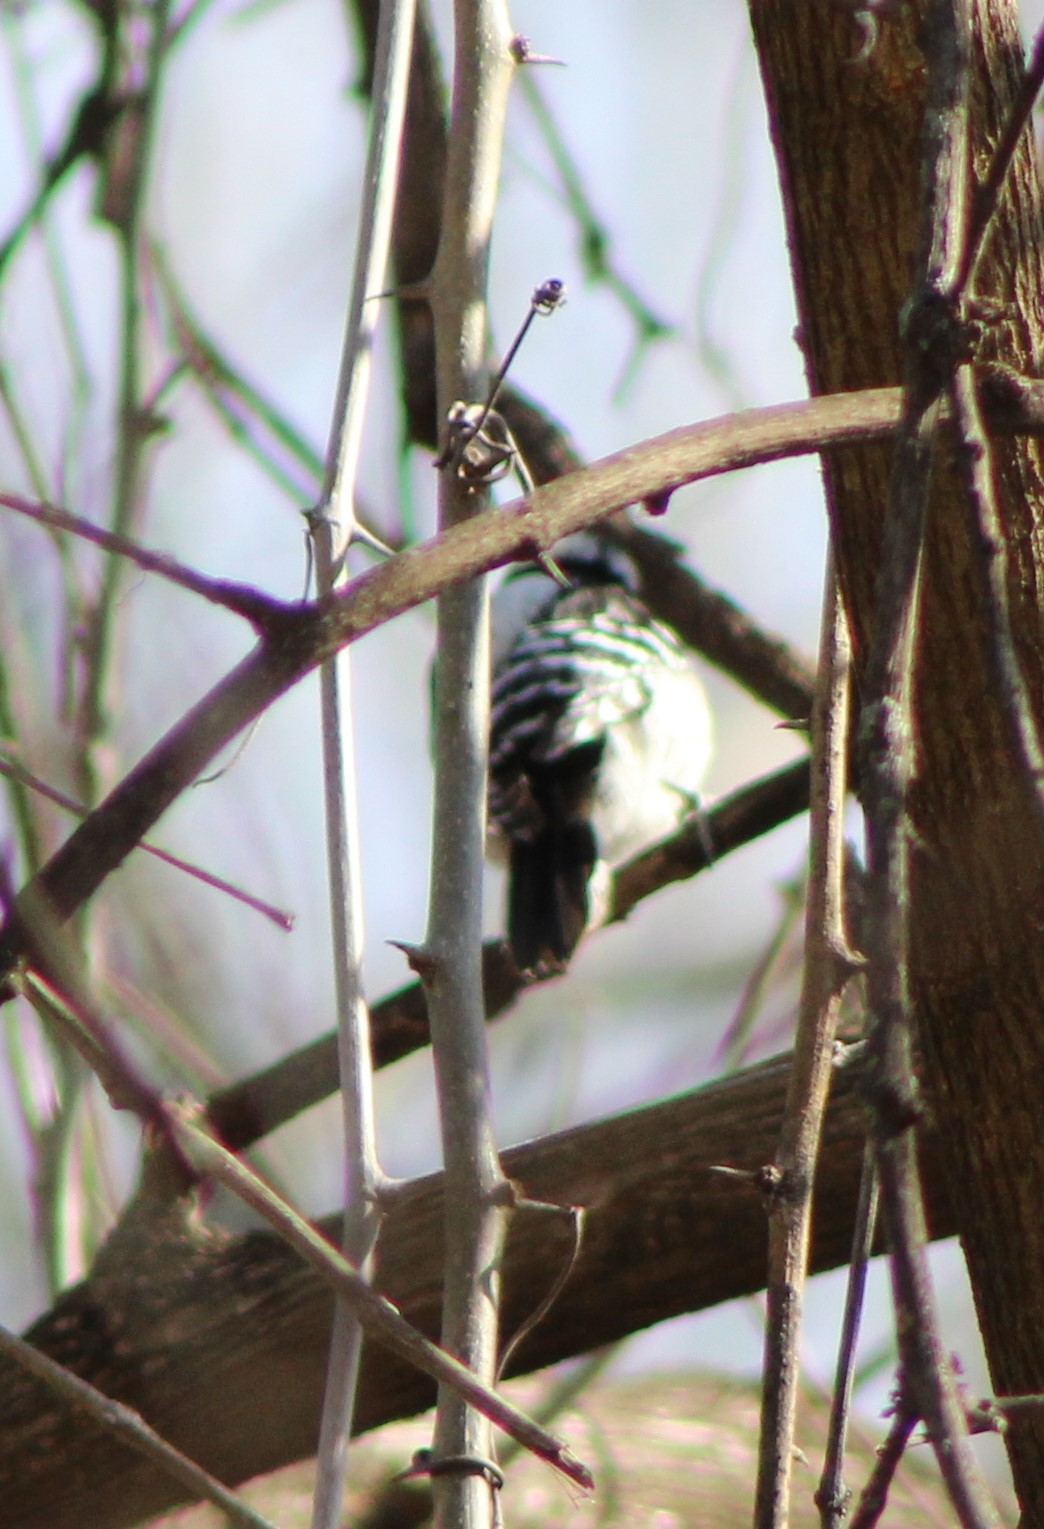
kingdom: Animalia
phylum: Chordata
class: Aves
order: Piciformes
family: Picidae
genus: Dryobates
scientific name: Dryobates pubescens
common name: Downy woodpecker
